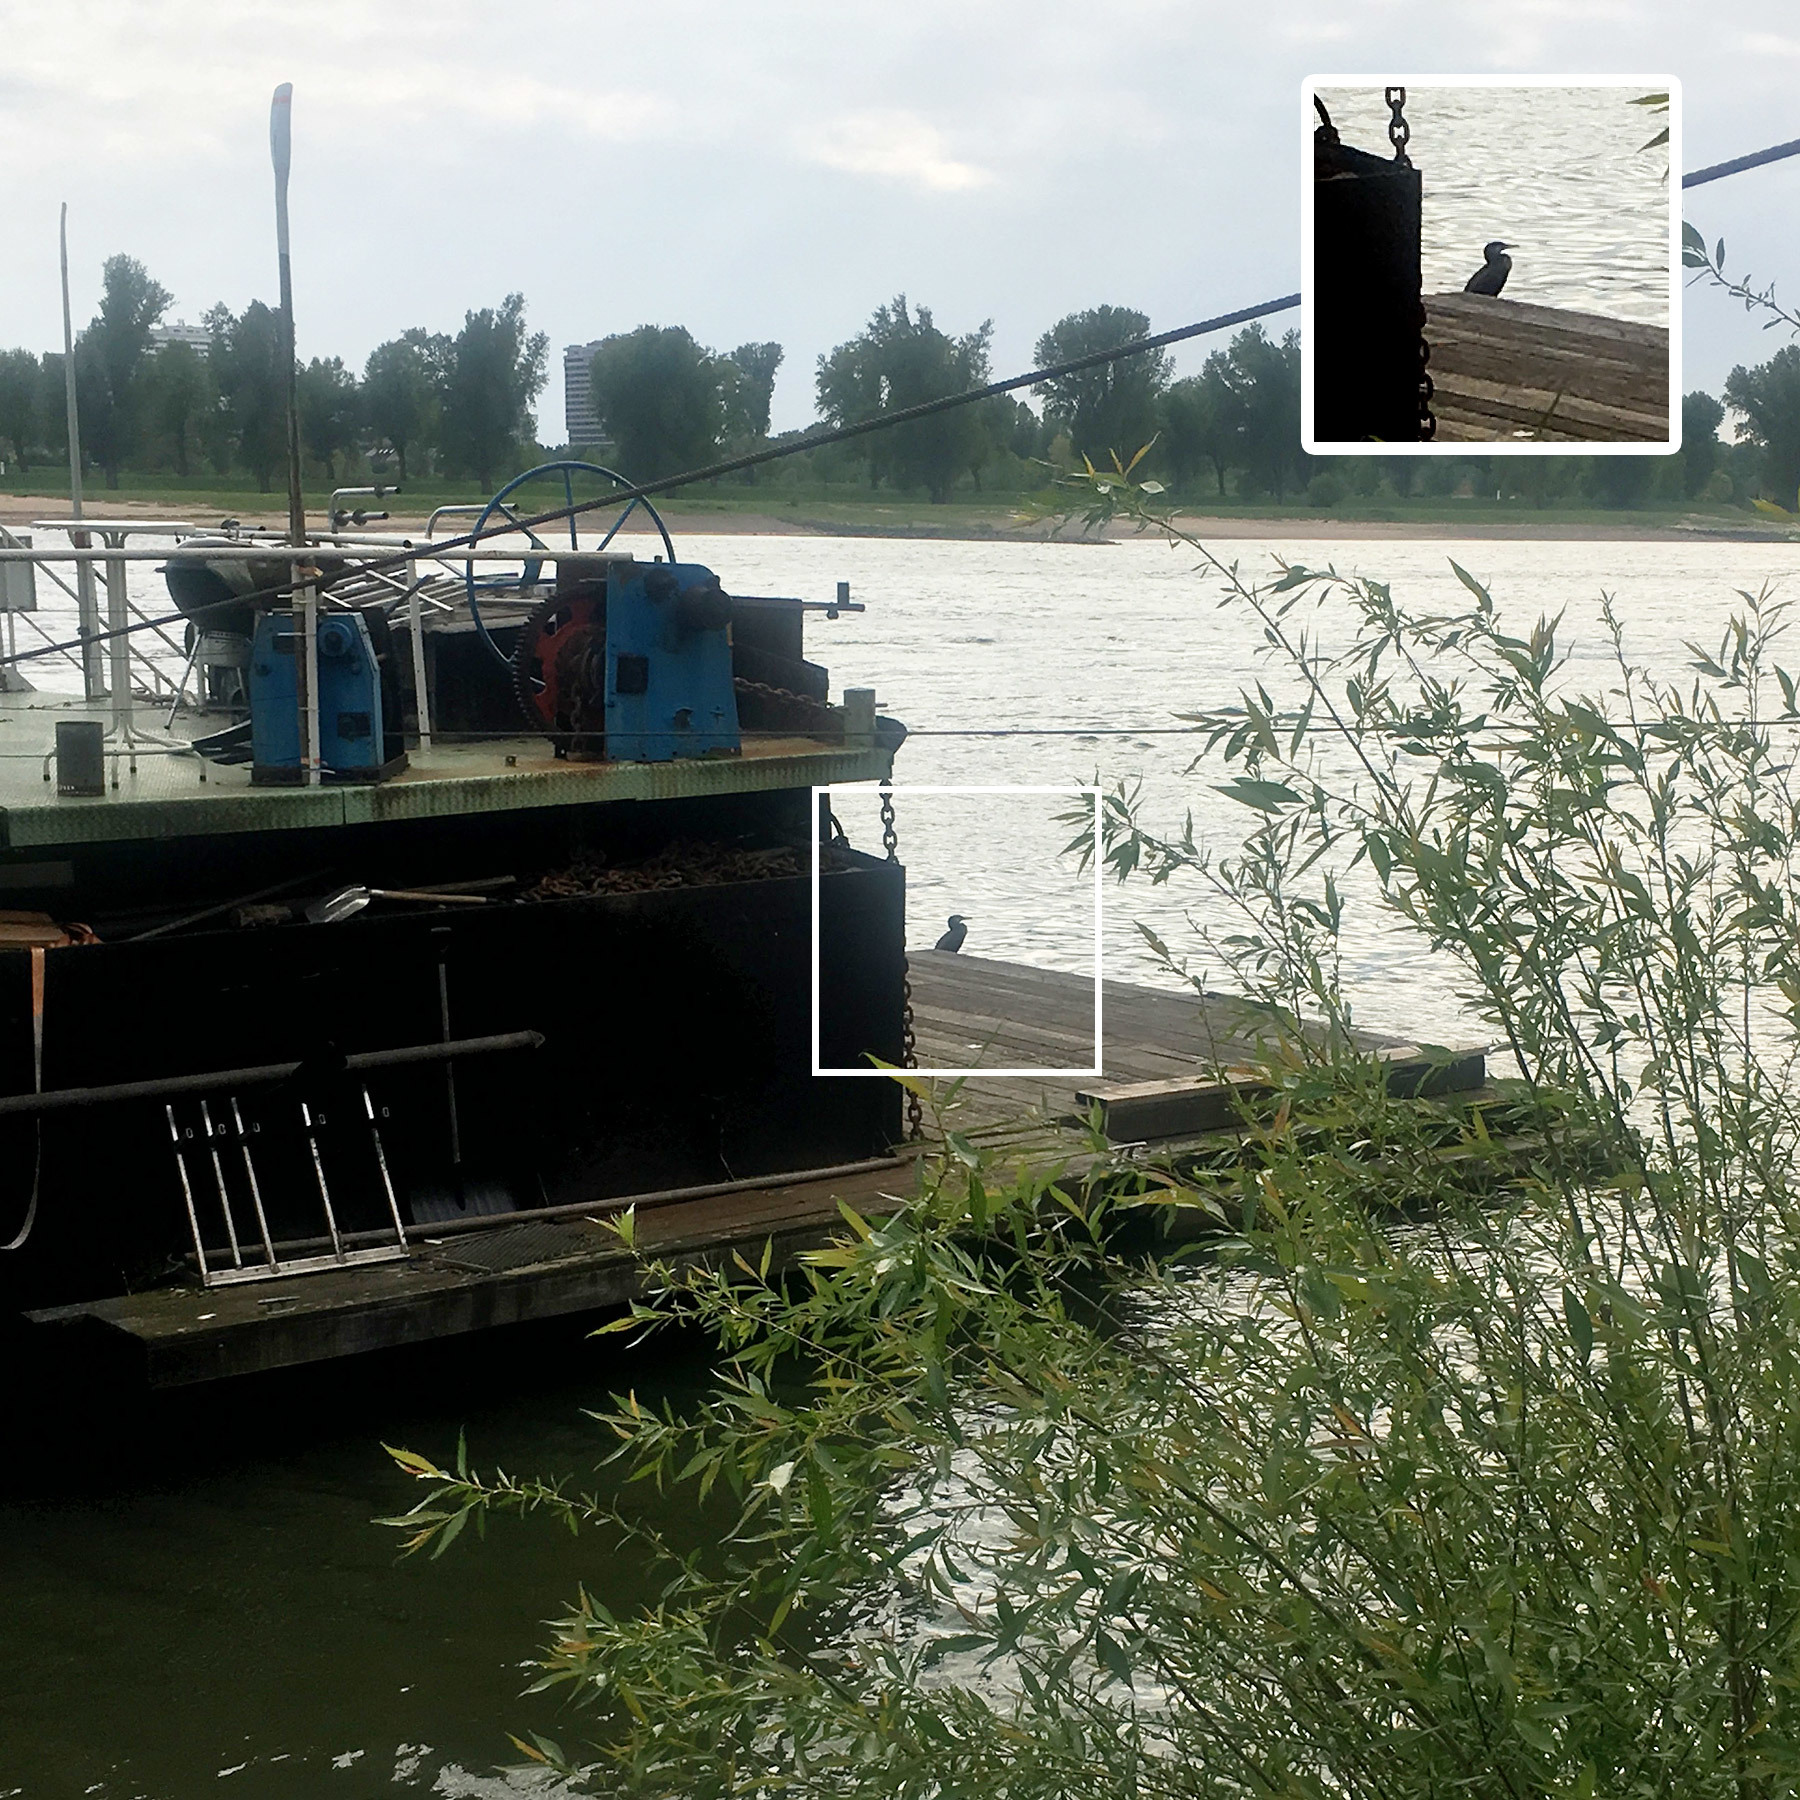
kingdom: Animalia
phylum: Chordata
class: Aves
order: Suliformes
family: Phalacrocoracidae
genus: Phalacrocorax
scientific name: Phalacrocorax carbo
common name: Great cormorant
